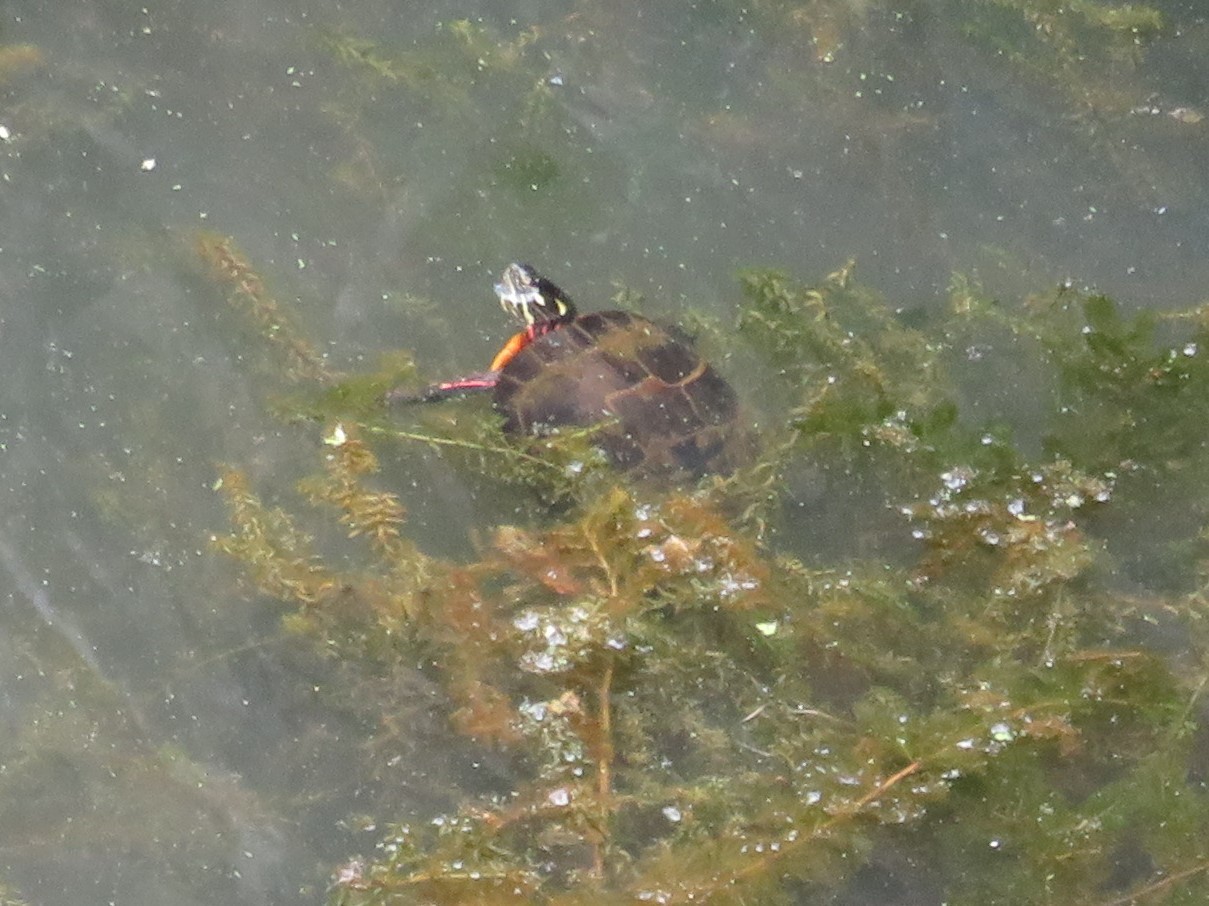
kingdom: Animalia
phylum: Chordata
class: Testudines
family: Emydidae
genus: Chrysemys
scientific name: Chrysemys picta
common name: Painted turtle
